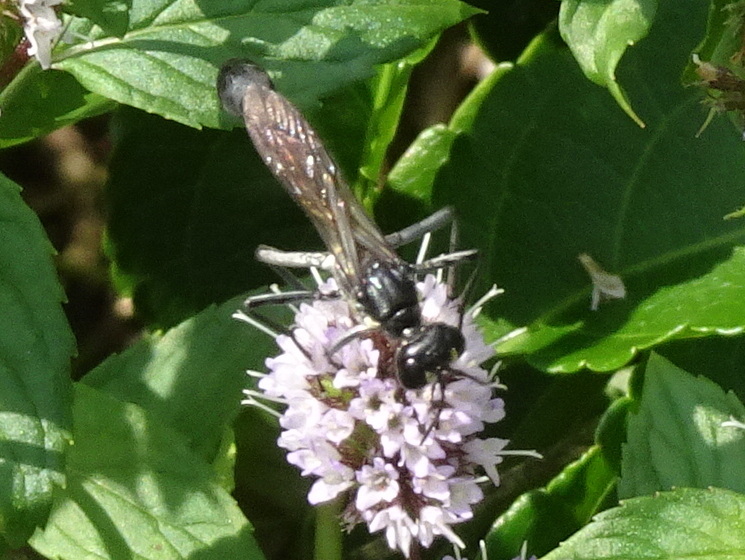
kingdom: Animalia
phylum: Arthropoda
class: Insecta
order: Hymenoptera
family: Sphecidae
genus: Eremnophila
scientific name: Eremnophila aureonotata
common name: Gold-marked thread-waisted wasp
